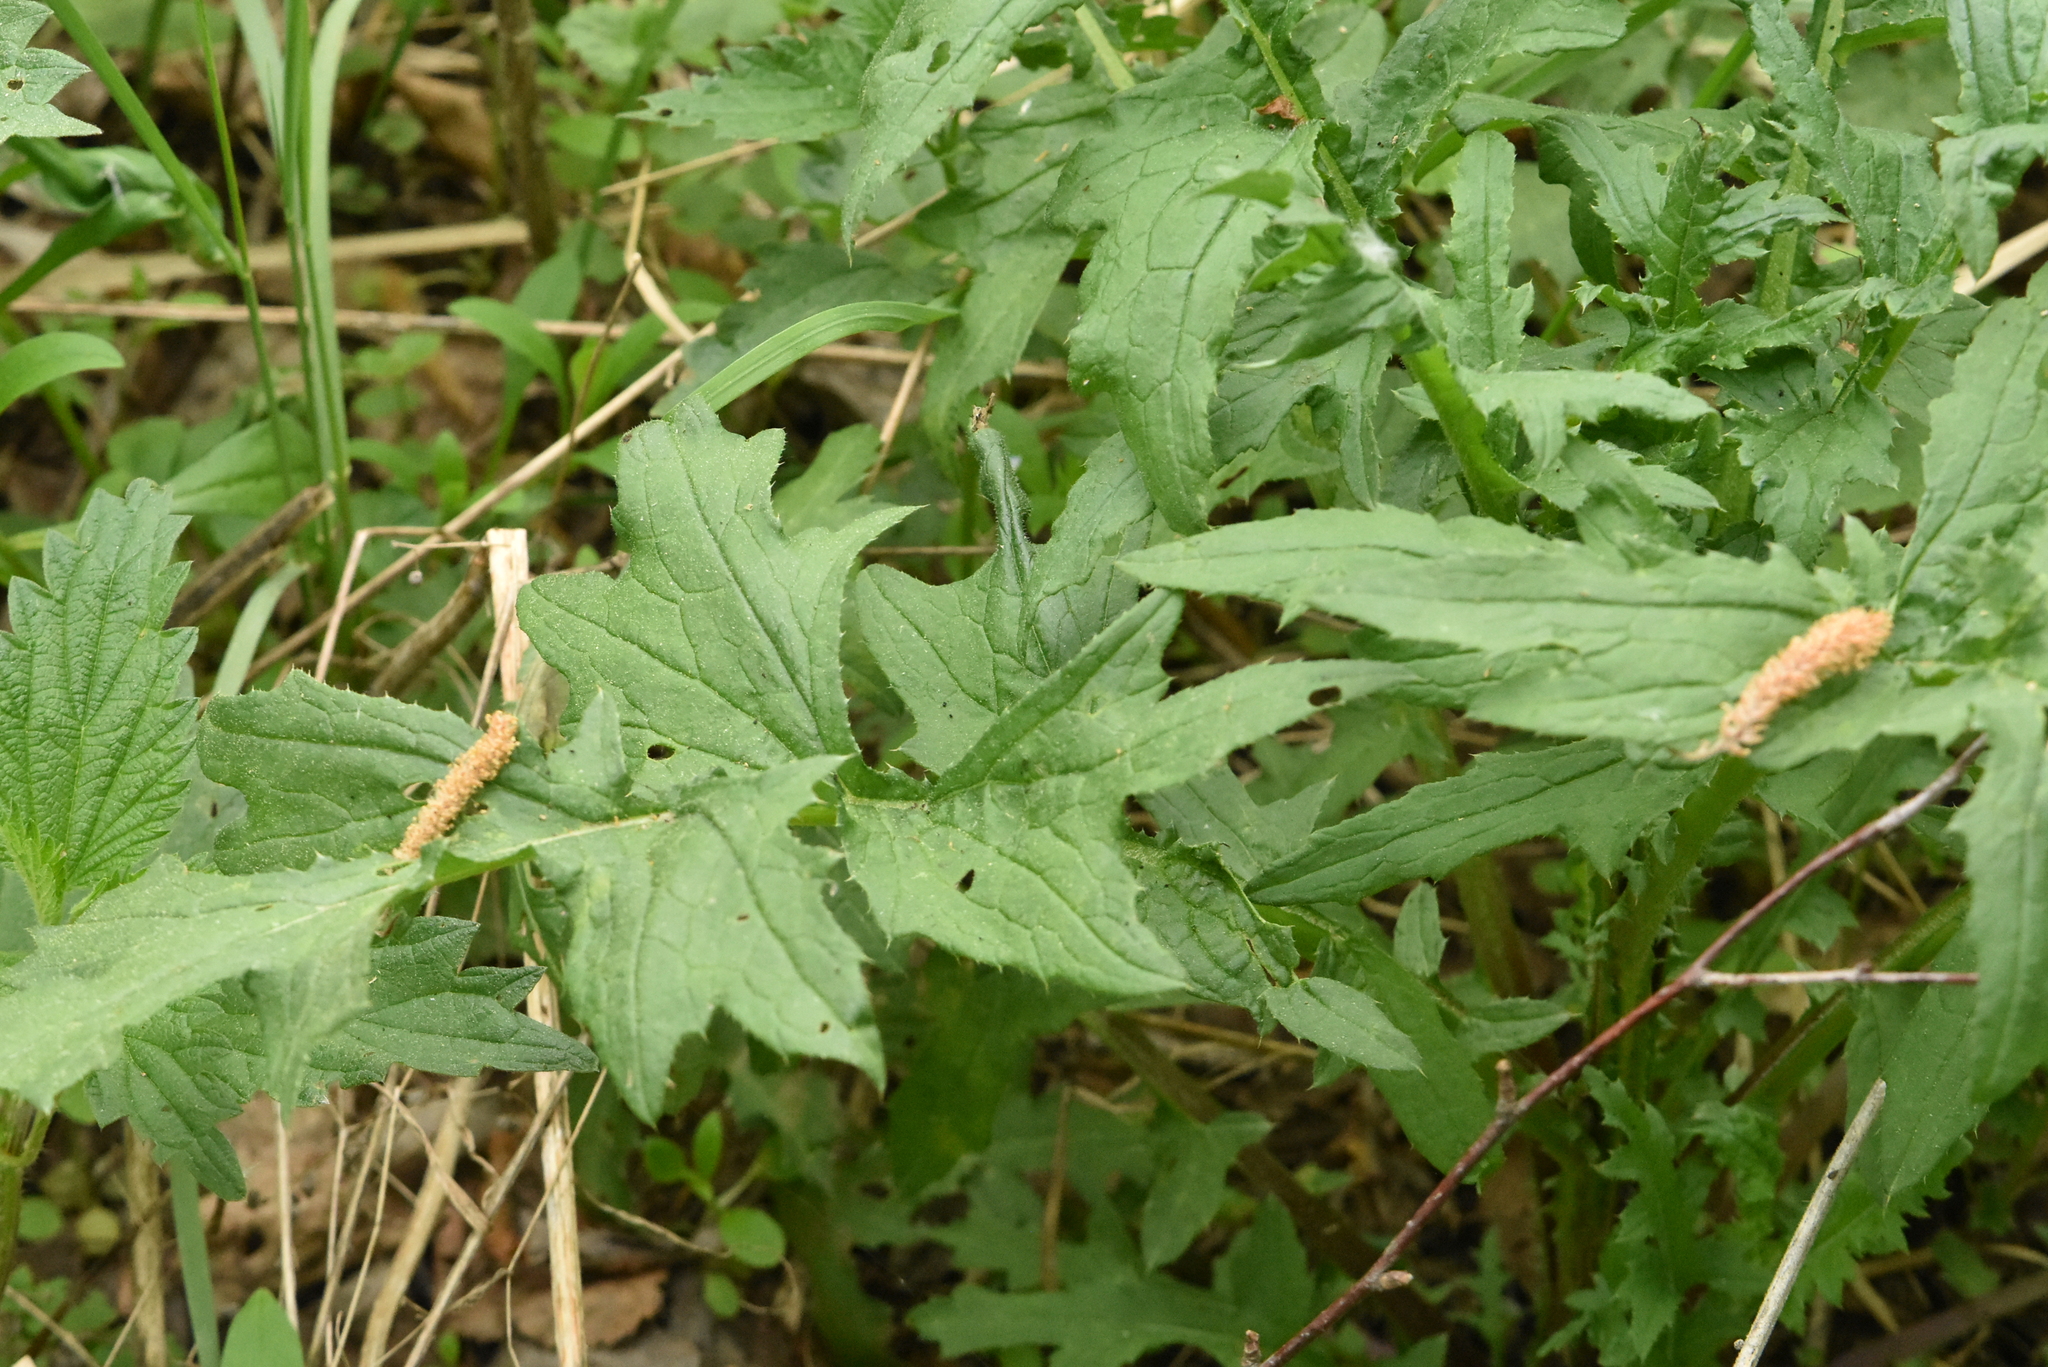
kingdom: Plantae
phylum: Tracheophyta
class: Magnoliopsida
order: Asterales
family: Asteraceae
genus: Carduus
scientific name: Carduus crispus
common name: Welted thistle
